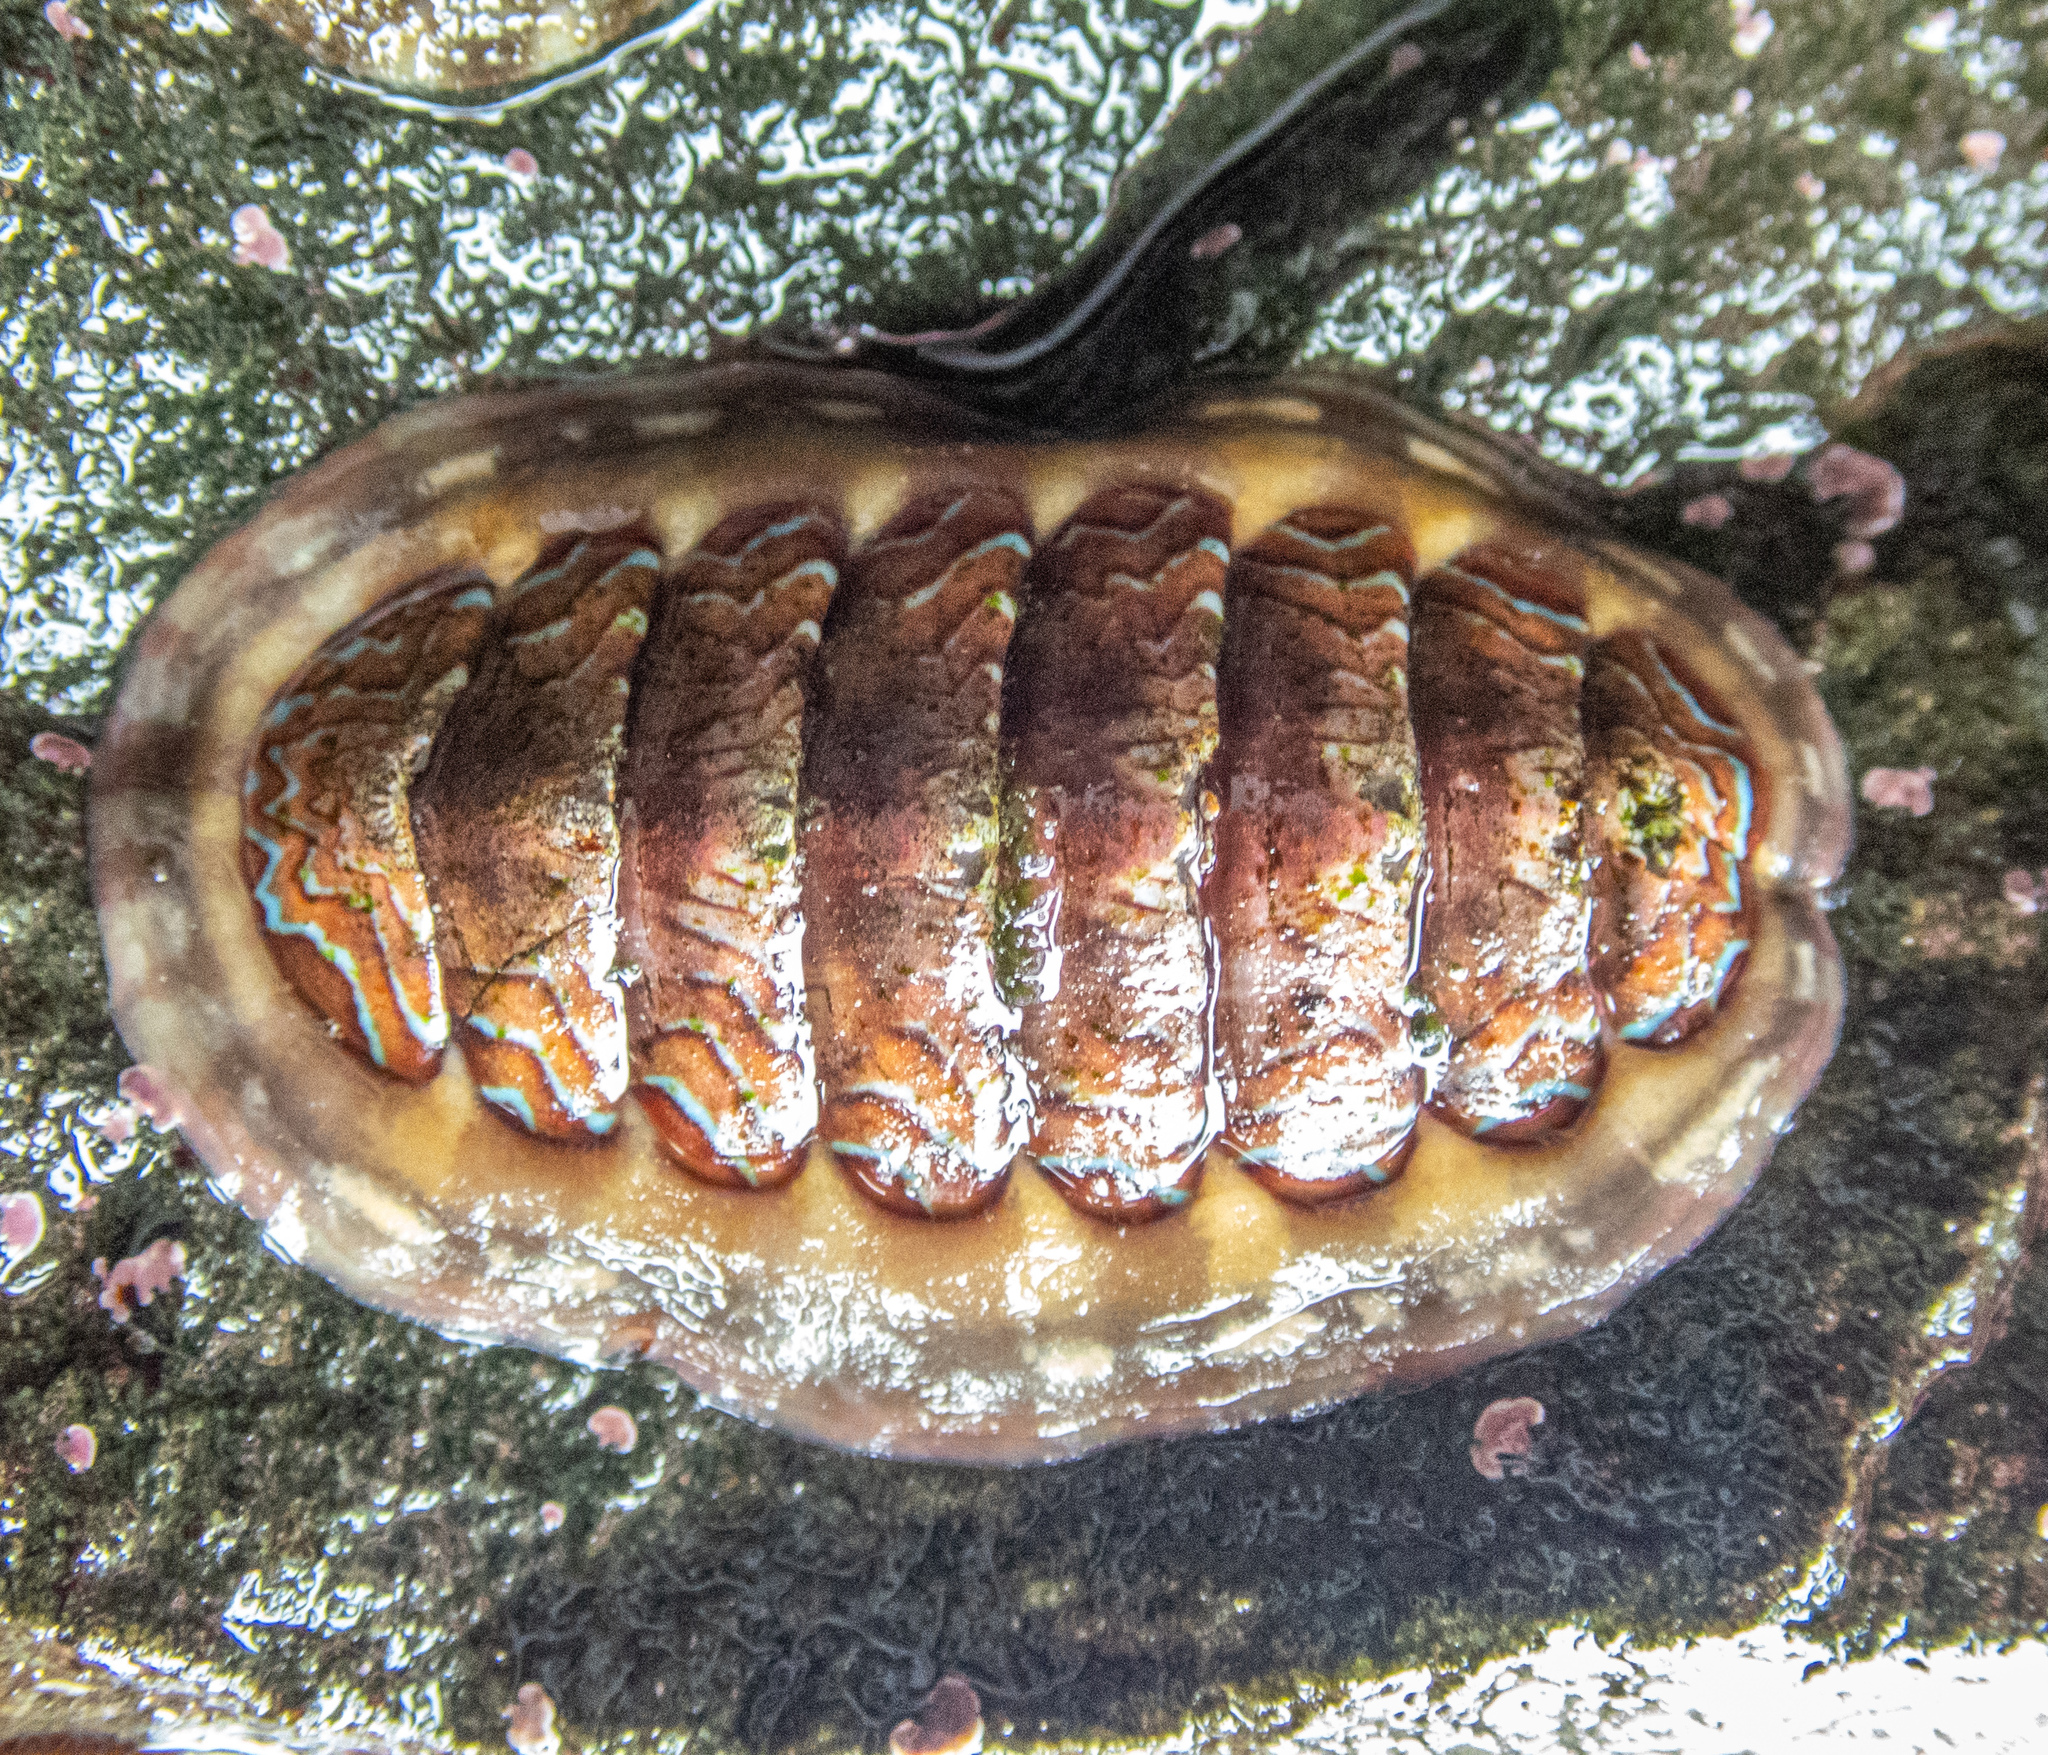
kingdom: Animalia
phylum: Mollusca
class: Polyplacophora
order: Chitonida
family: Tonicellidae
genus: Tonicella
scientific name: Tonicella lokii
